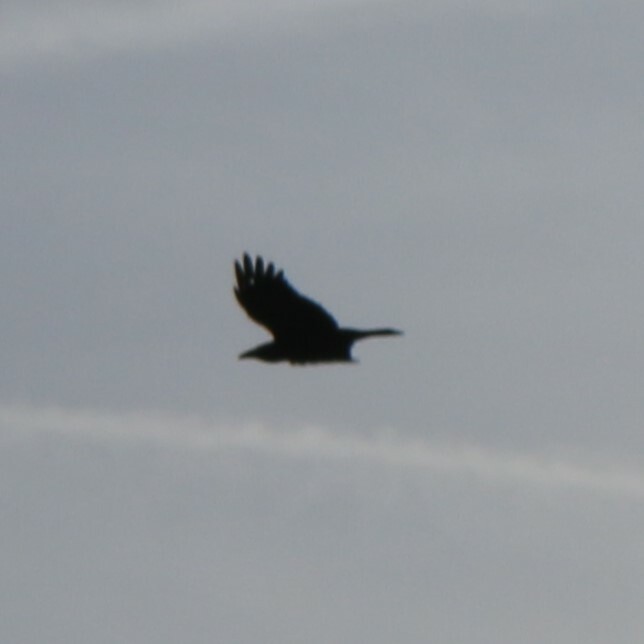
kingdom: Animalia
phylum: Chordata
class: Aves
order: Passeriformes
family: Corvidae
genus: Corvus
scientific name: Corvus corax
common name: Common raven
